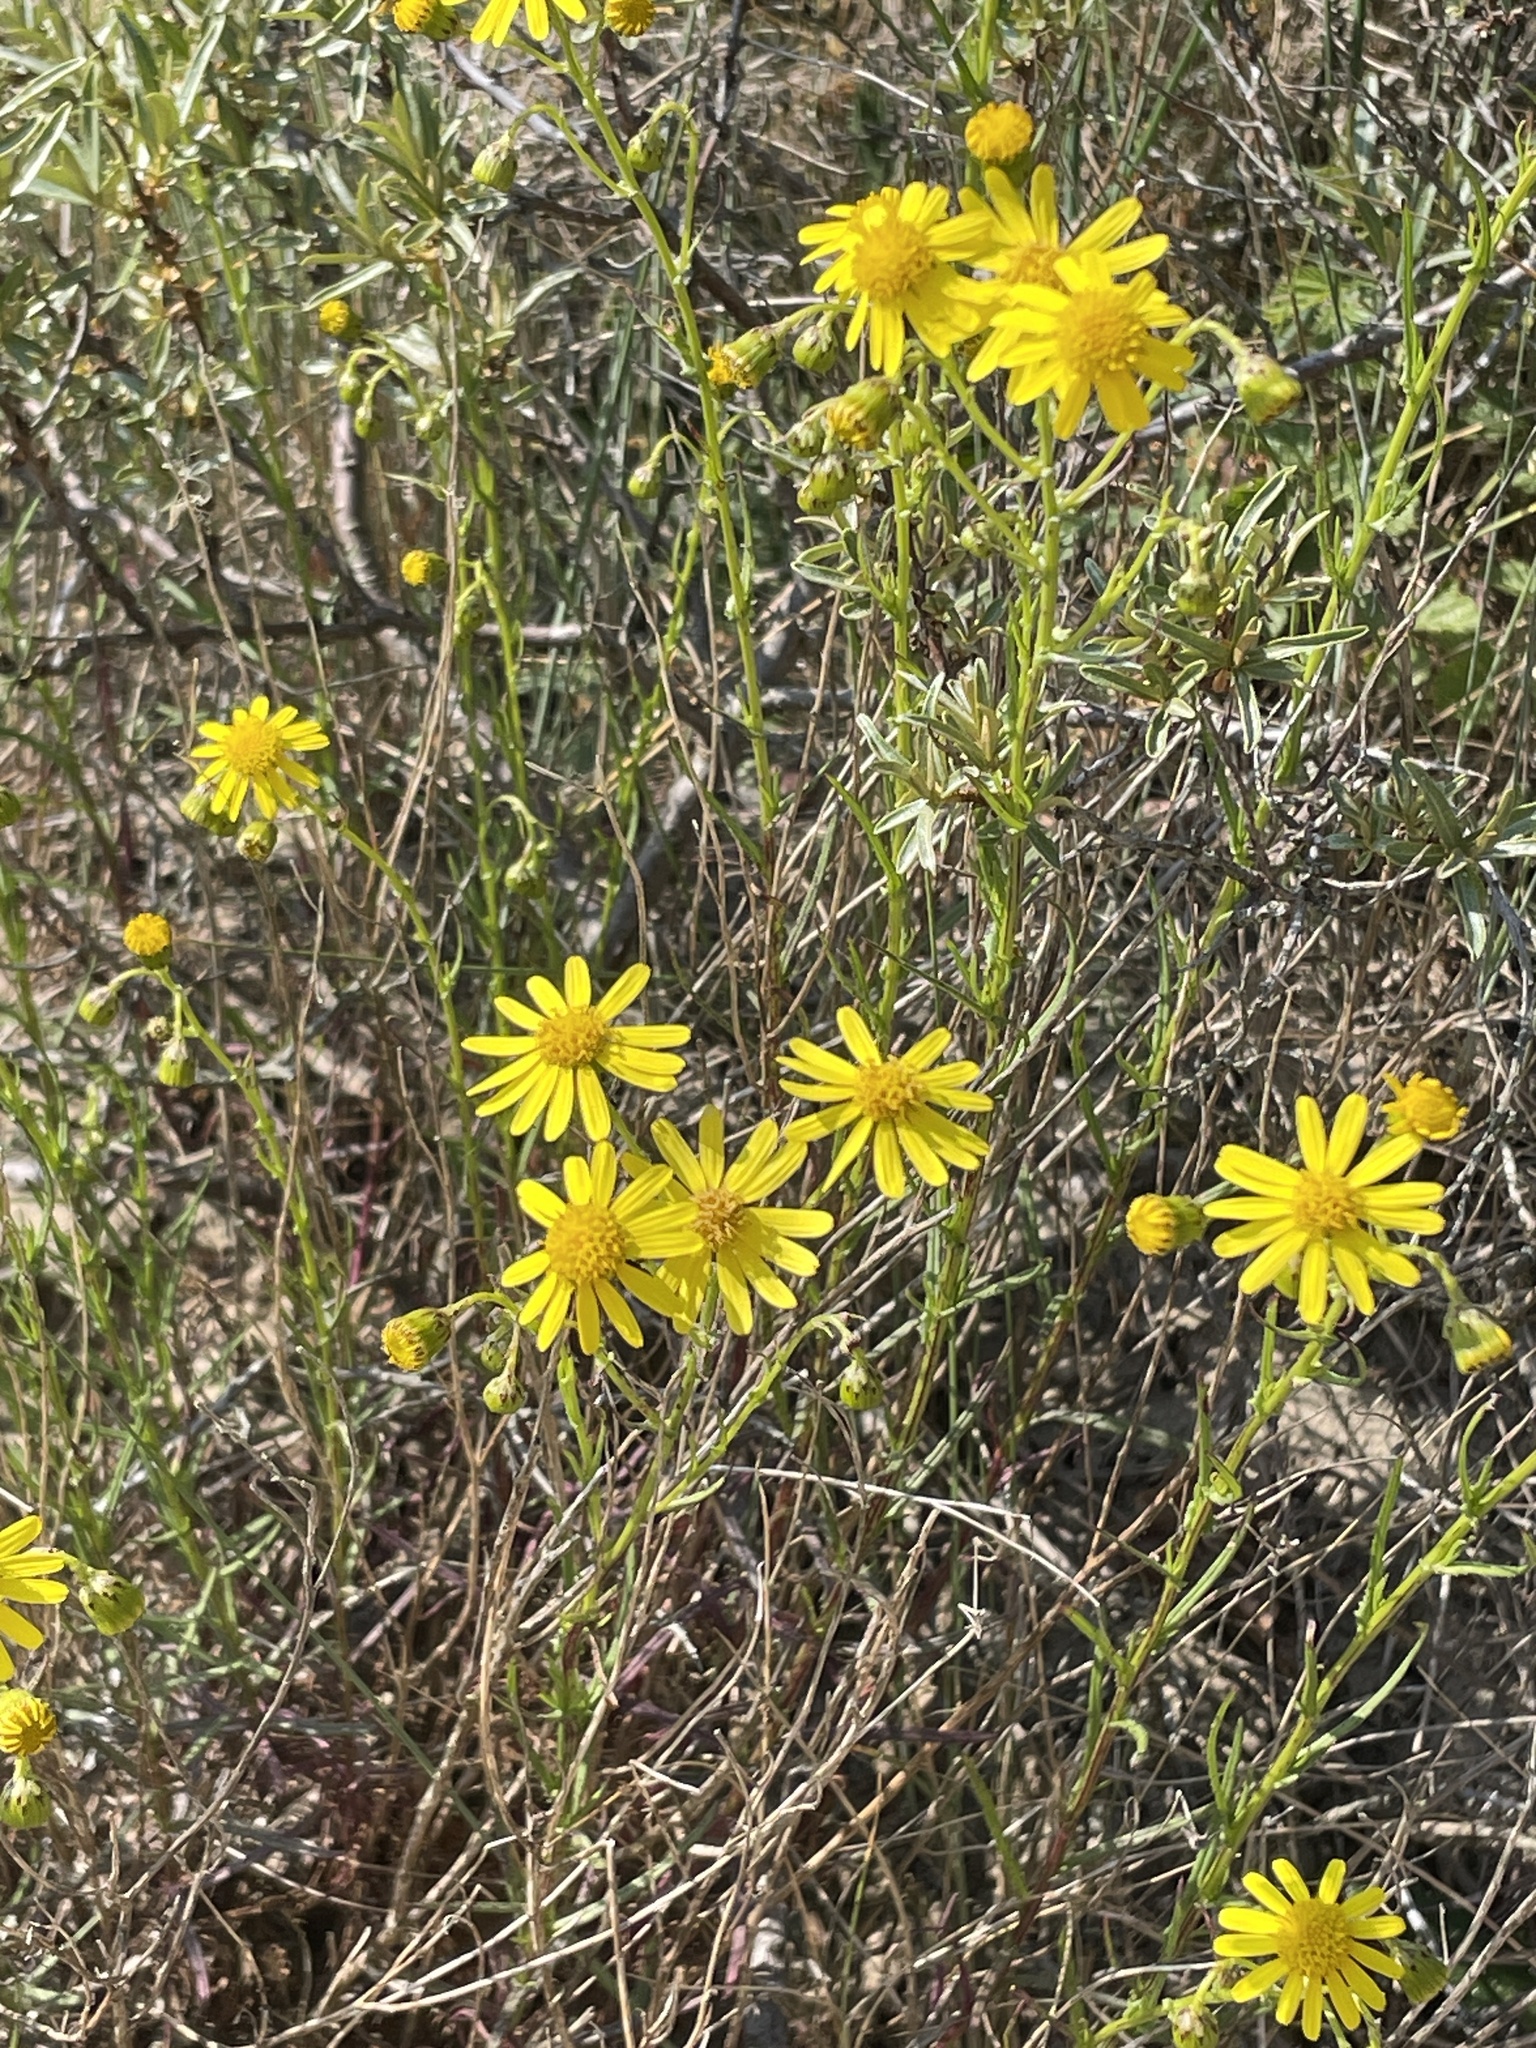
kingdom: Plantae
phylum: Tracheophyta
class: Magnoliopsida
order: Asterales
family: Asteraceae
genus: Senecio
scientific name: Senecio inaequidens
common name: Narrow-leaved ragwort
